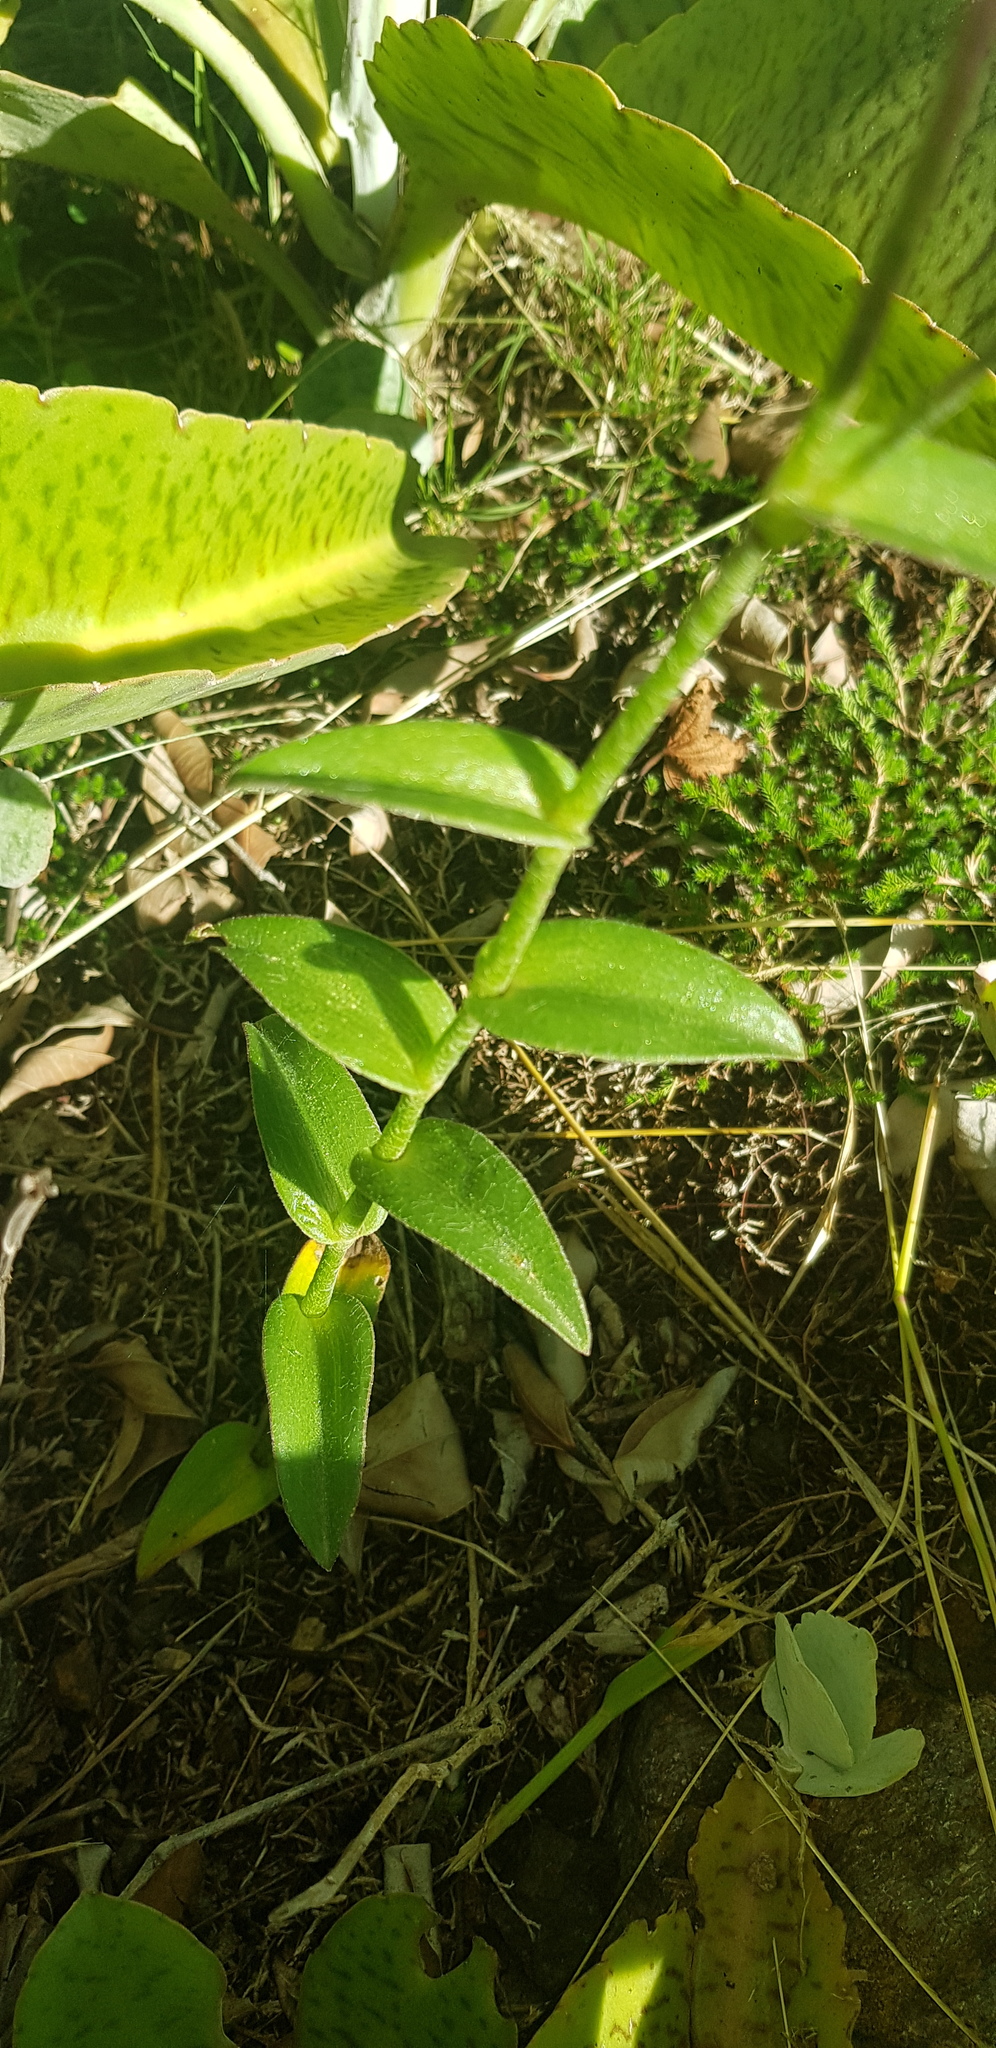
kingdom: Plantae
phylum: Tracheophyta
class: Liliopsida
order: Commelinales
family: Commelinaceae
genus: Tradescantia
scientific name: Tradescantia crassifolia
